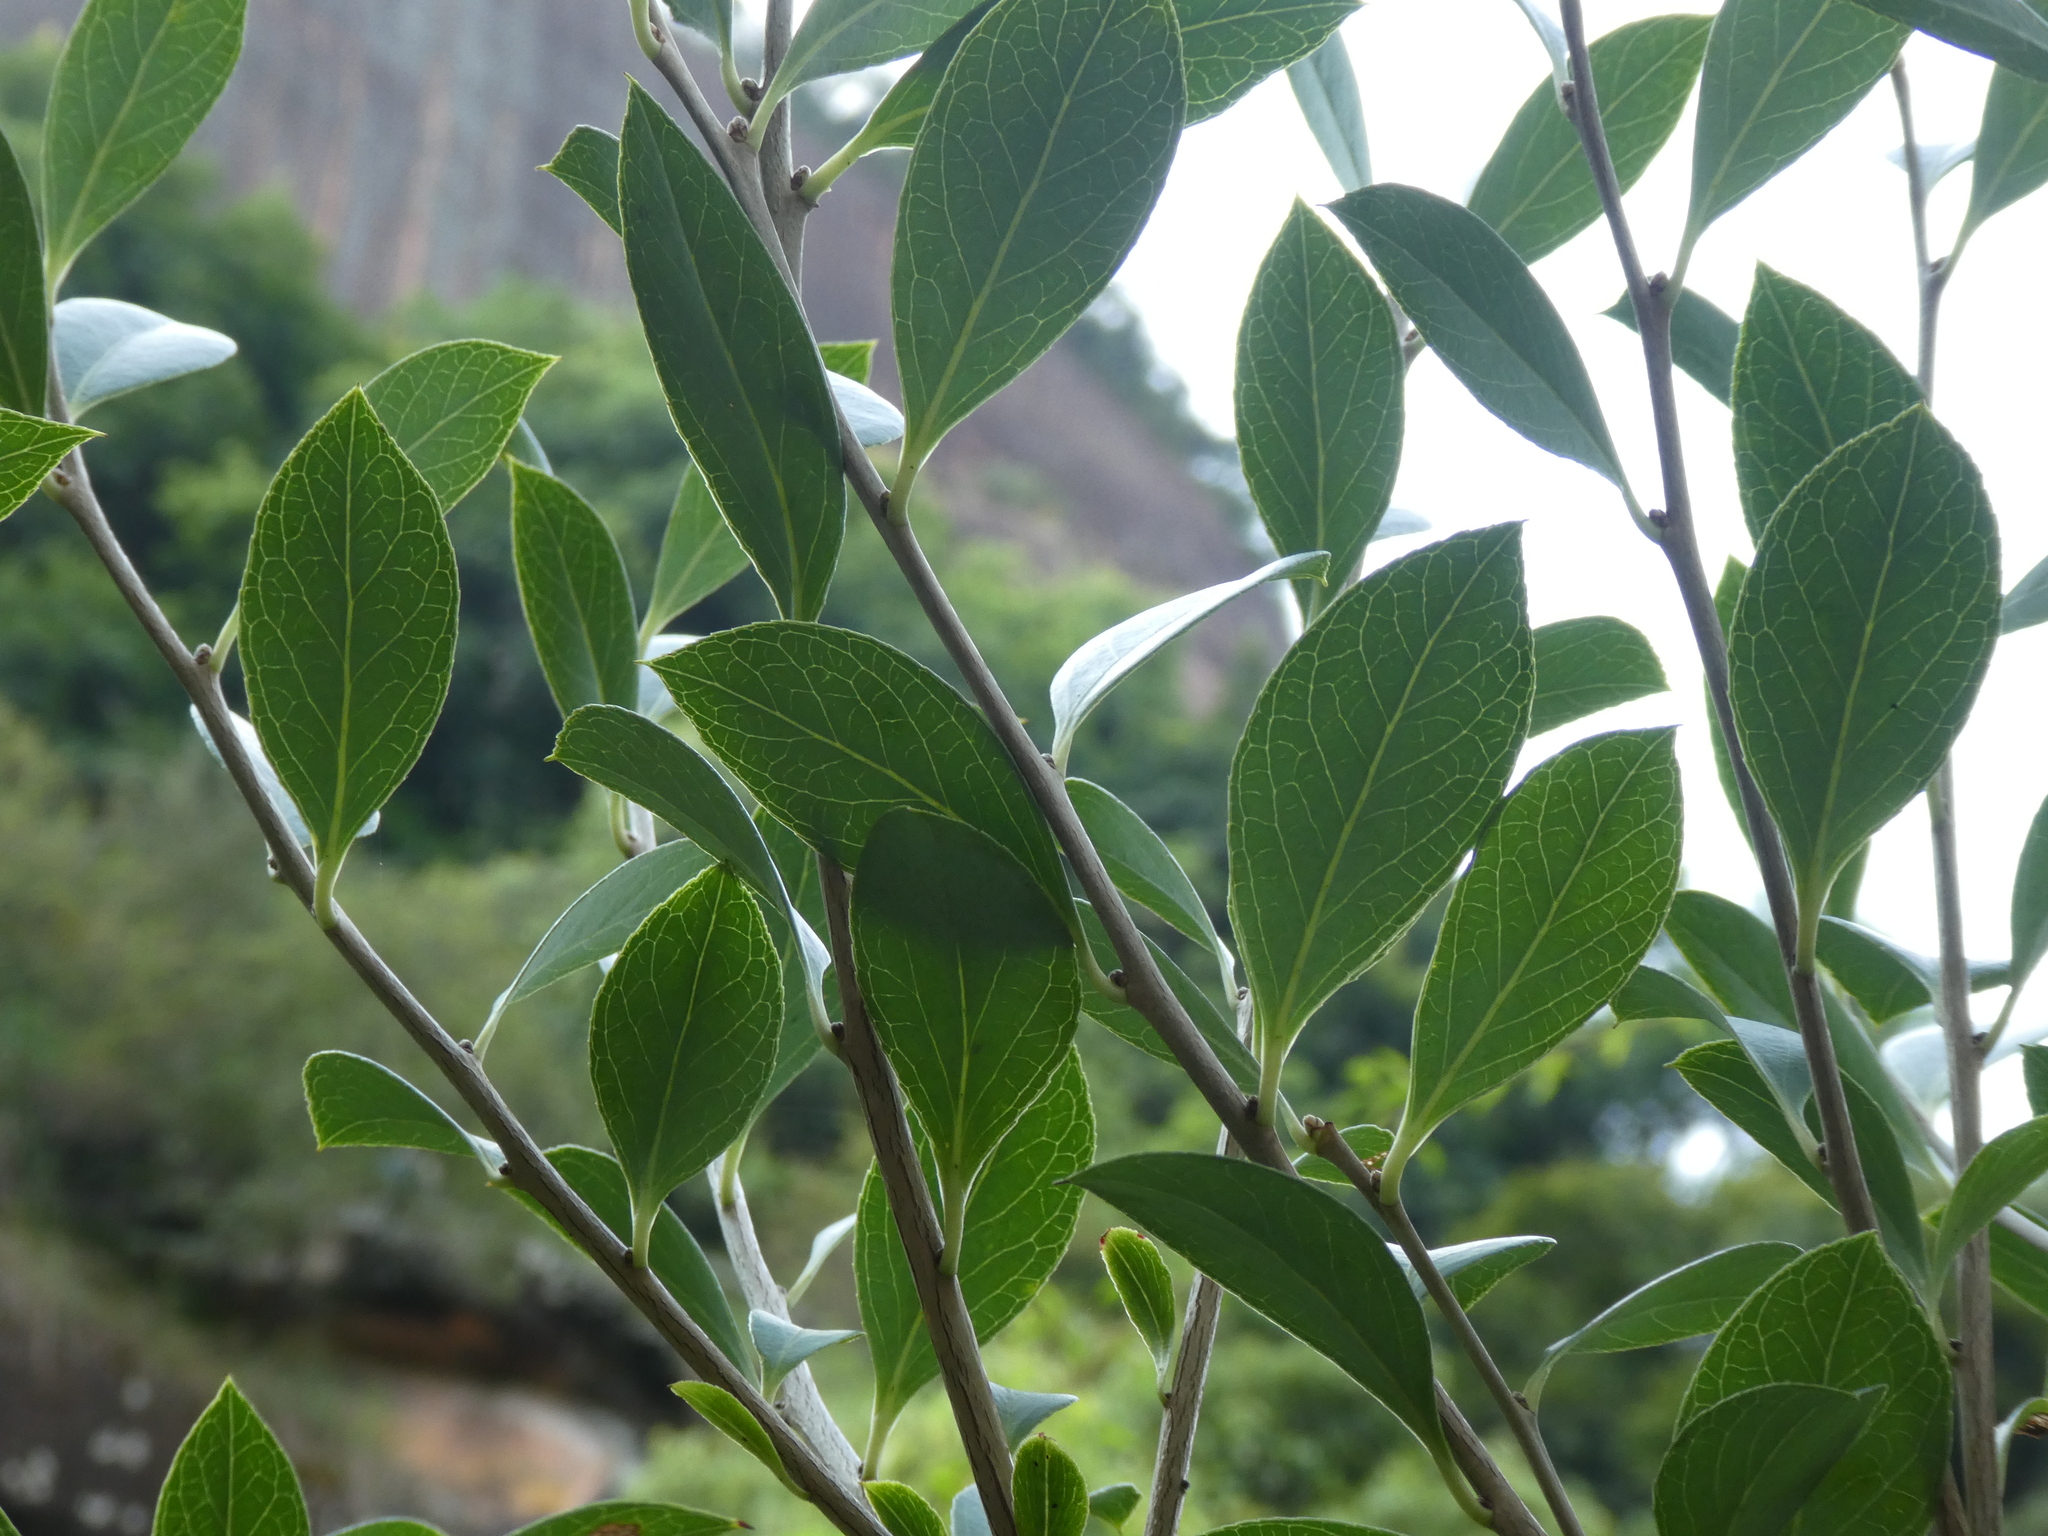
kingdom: Plantae
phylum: Tracheophyta
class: Magnoliopsida
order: Ericales
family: Ericaceae
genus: Vaccinium
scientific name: Vaccinium bracteatum
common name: Sea bilberry
